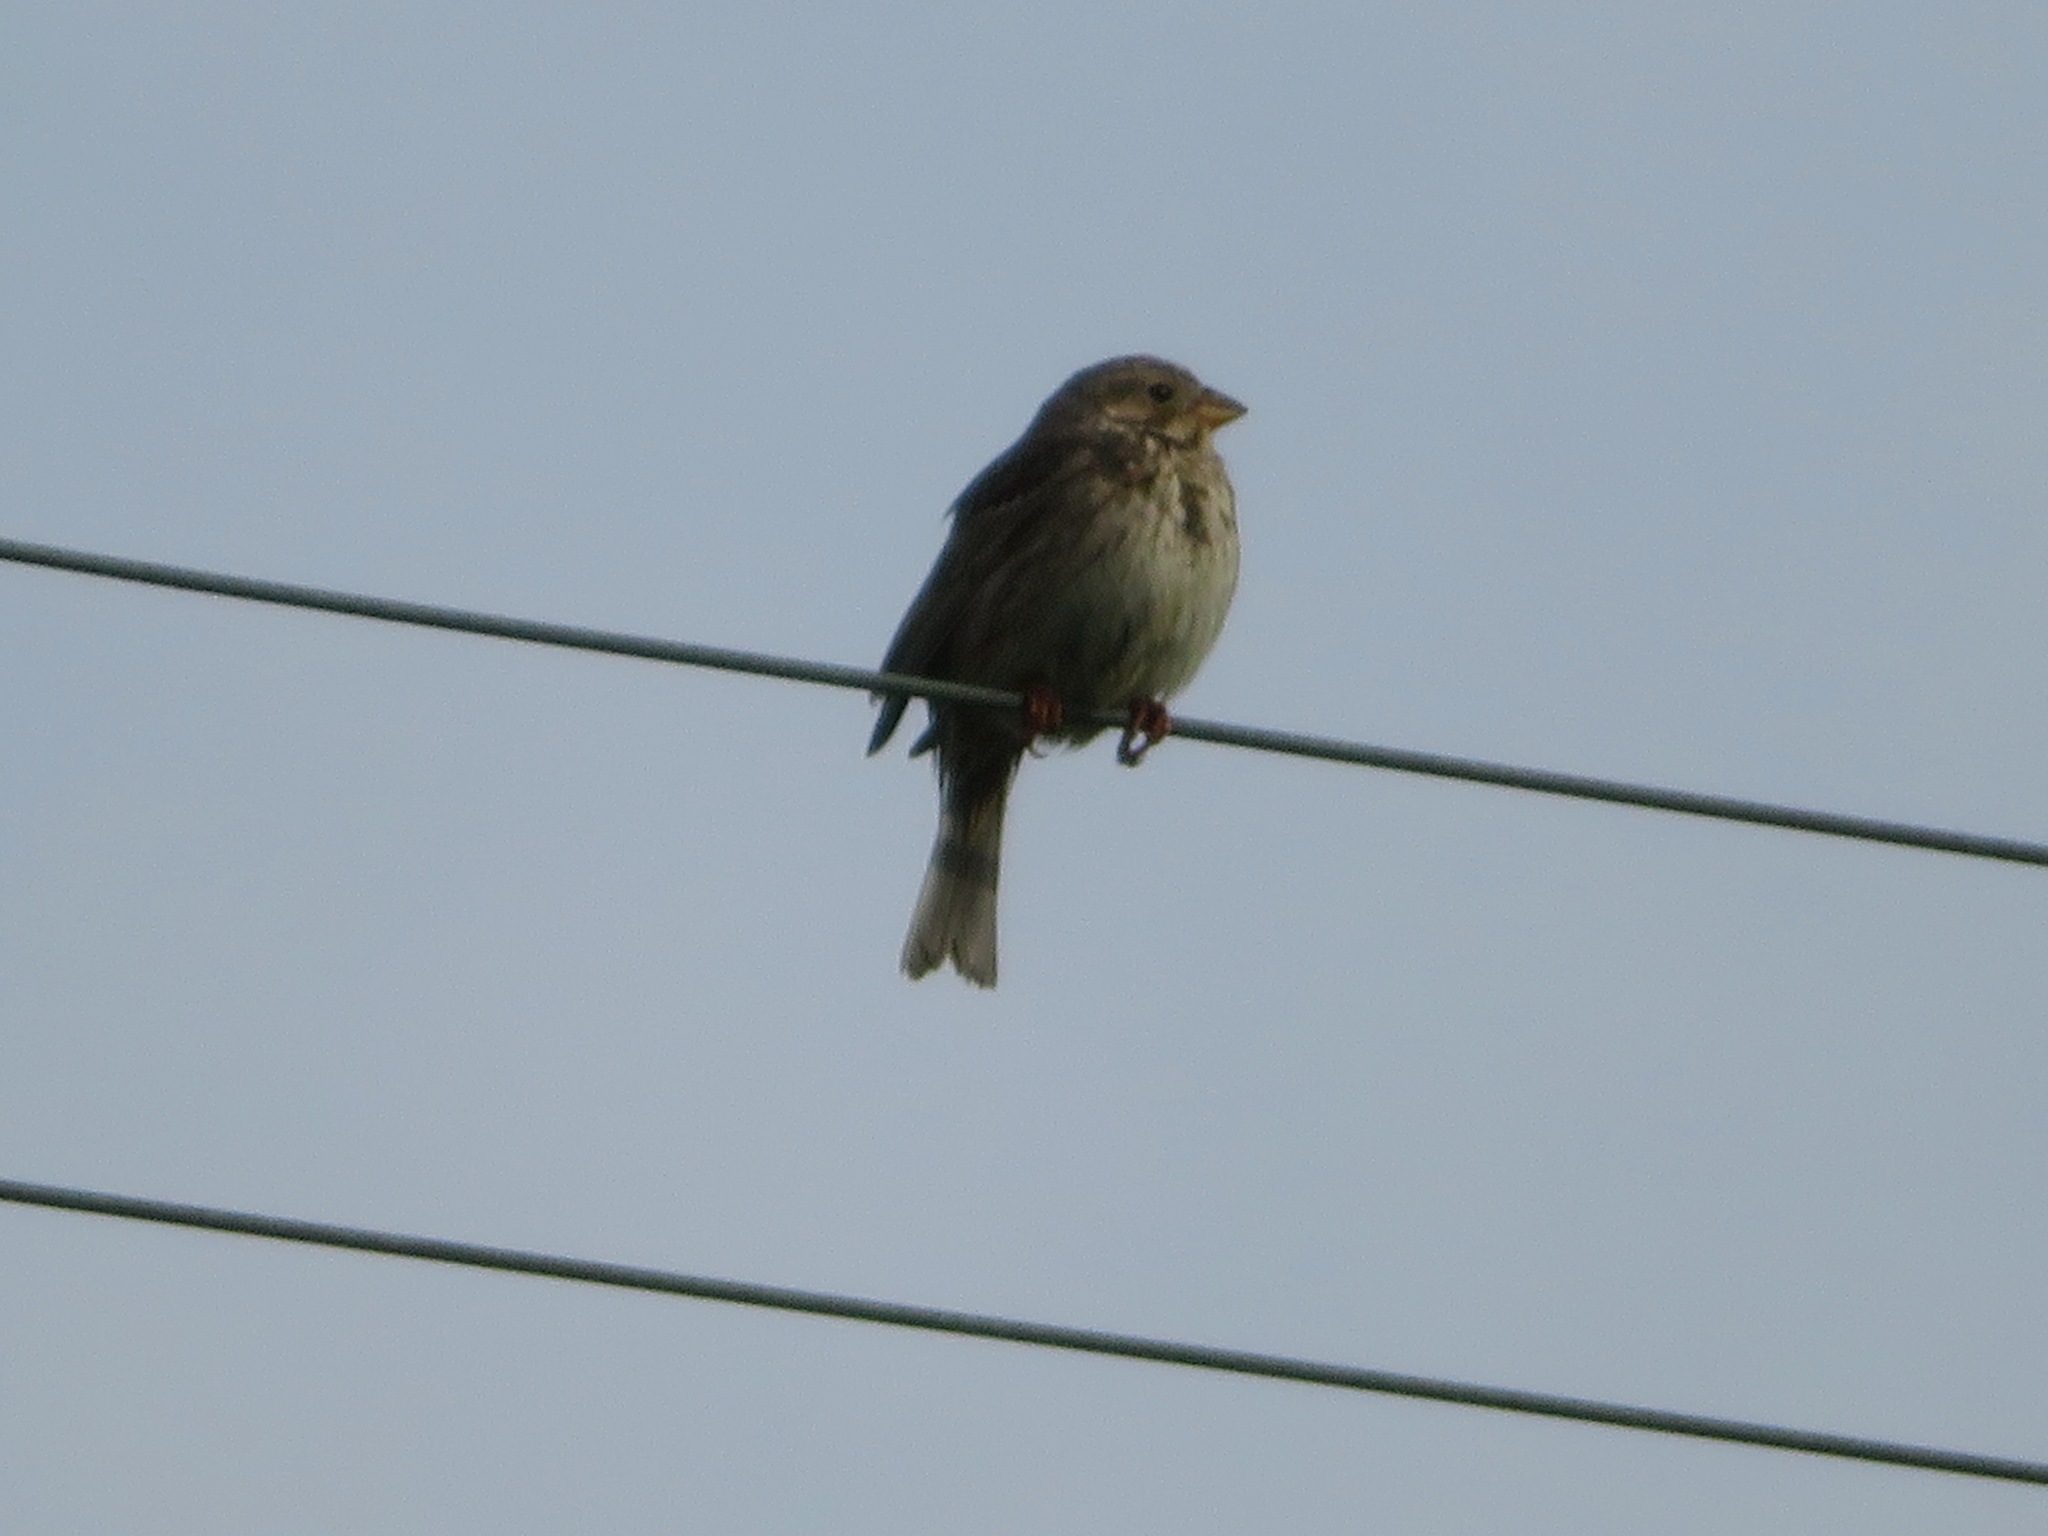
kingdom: Animalia
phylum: Chordata
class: Aves
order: Passeriformes
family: Emberizidae
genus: Emberiza
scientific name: Emberiza calandra
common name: Corn bunting
